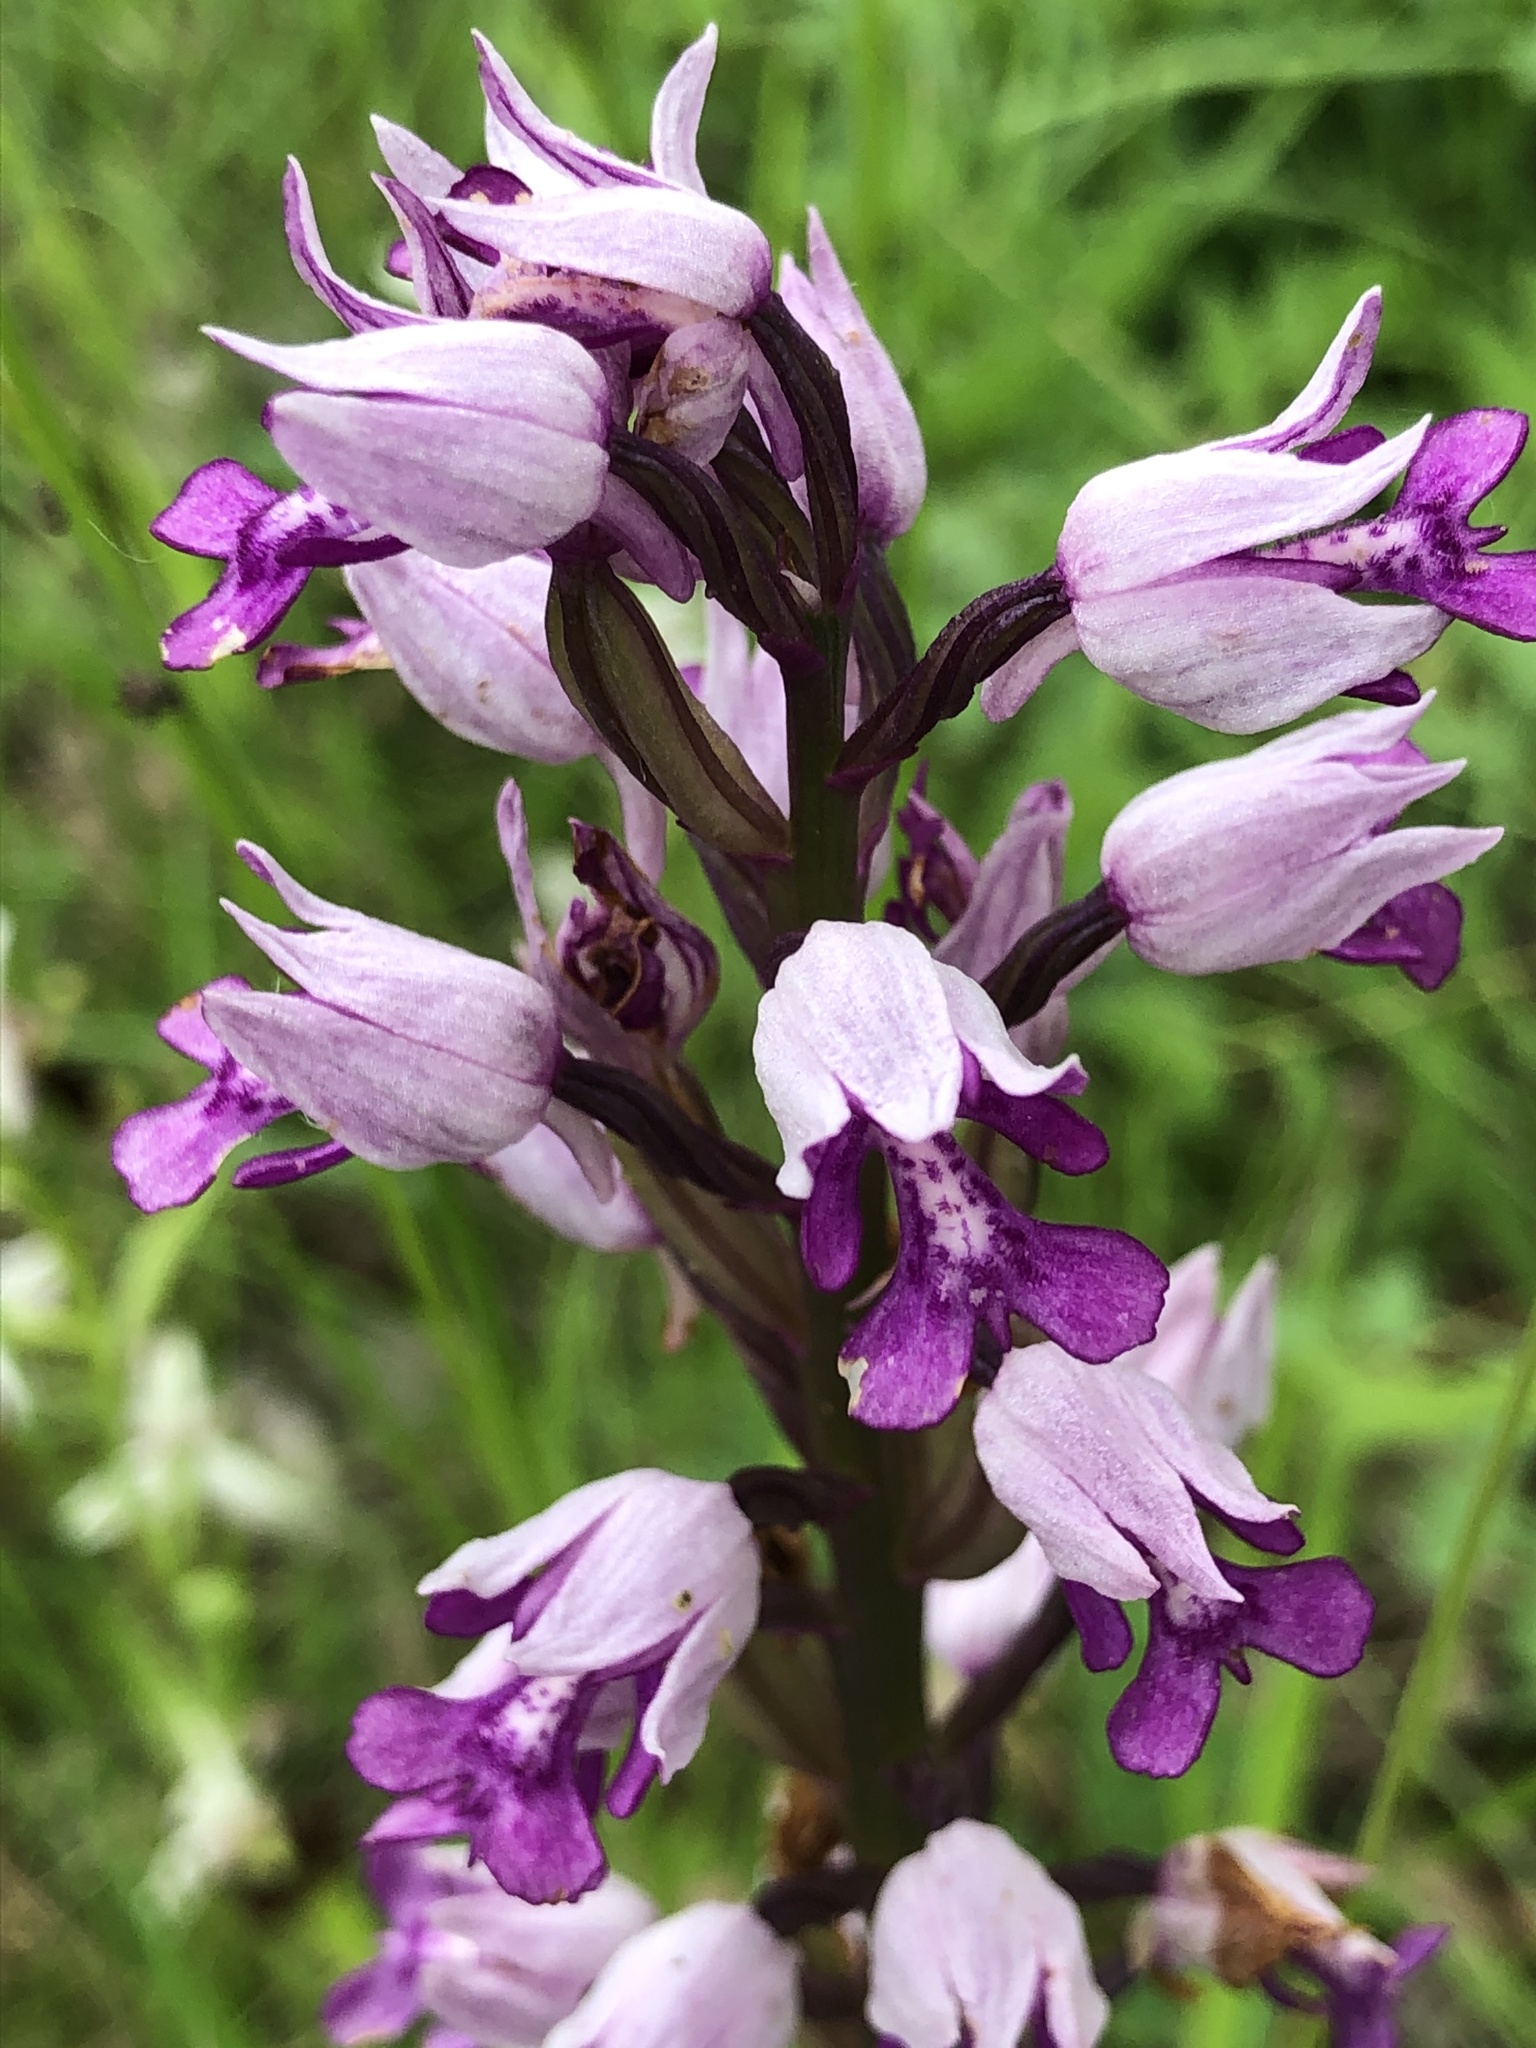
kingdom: Plantae
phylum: Tracheophyta
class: Liliopsida
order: Asparagales
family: Orchidaceae
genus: Orchis
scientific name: Orchis militaris
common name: Military orchid
